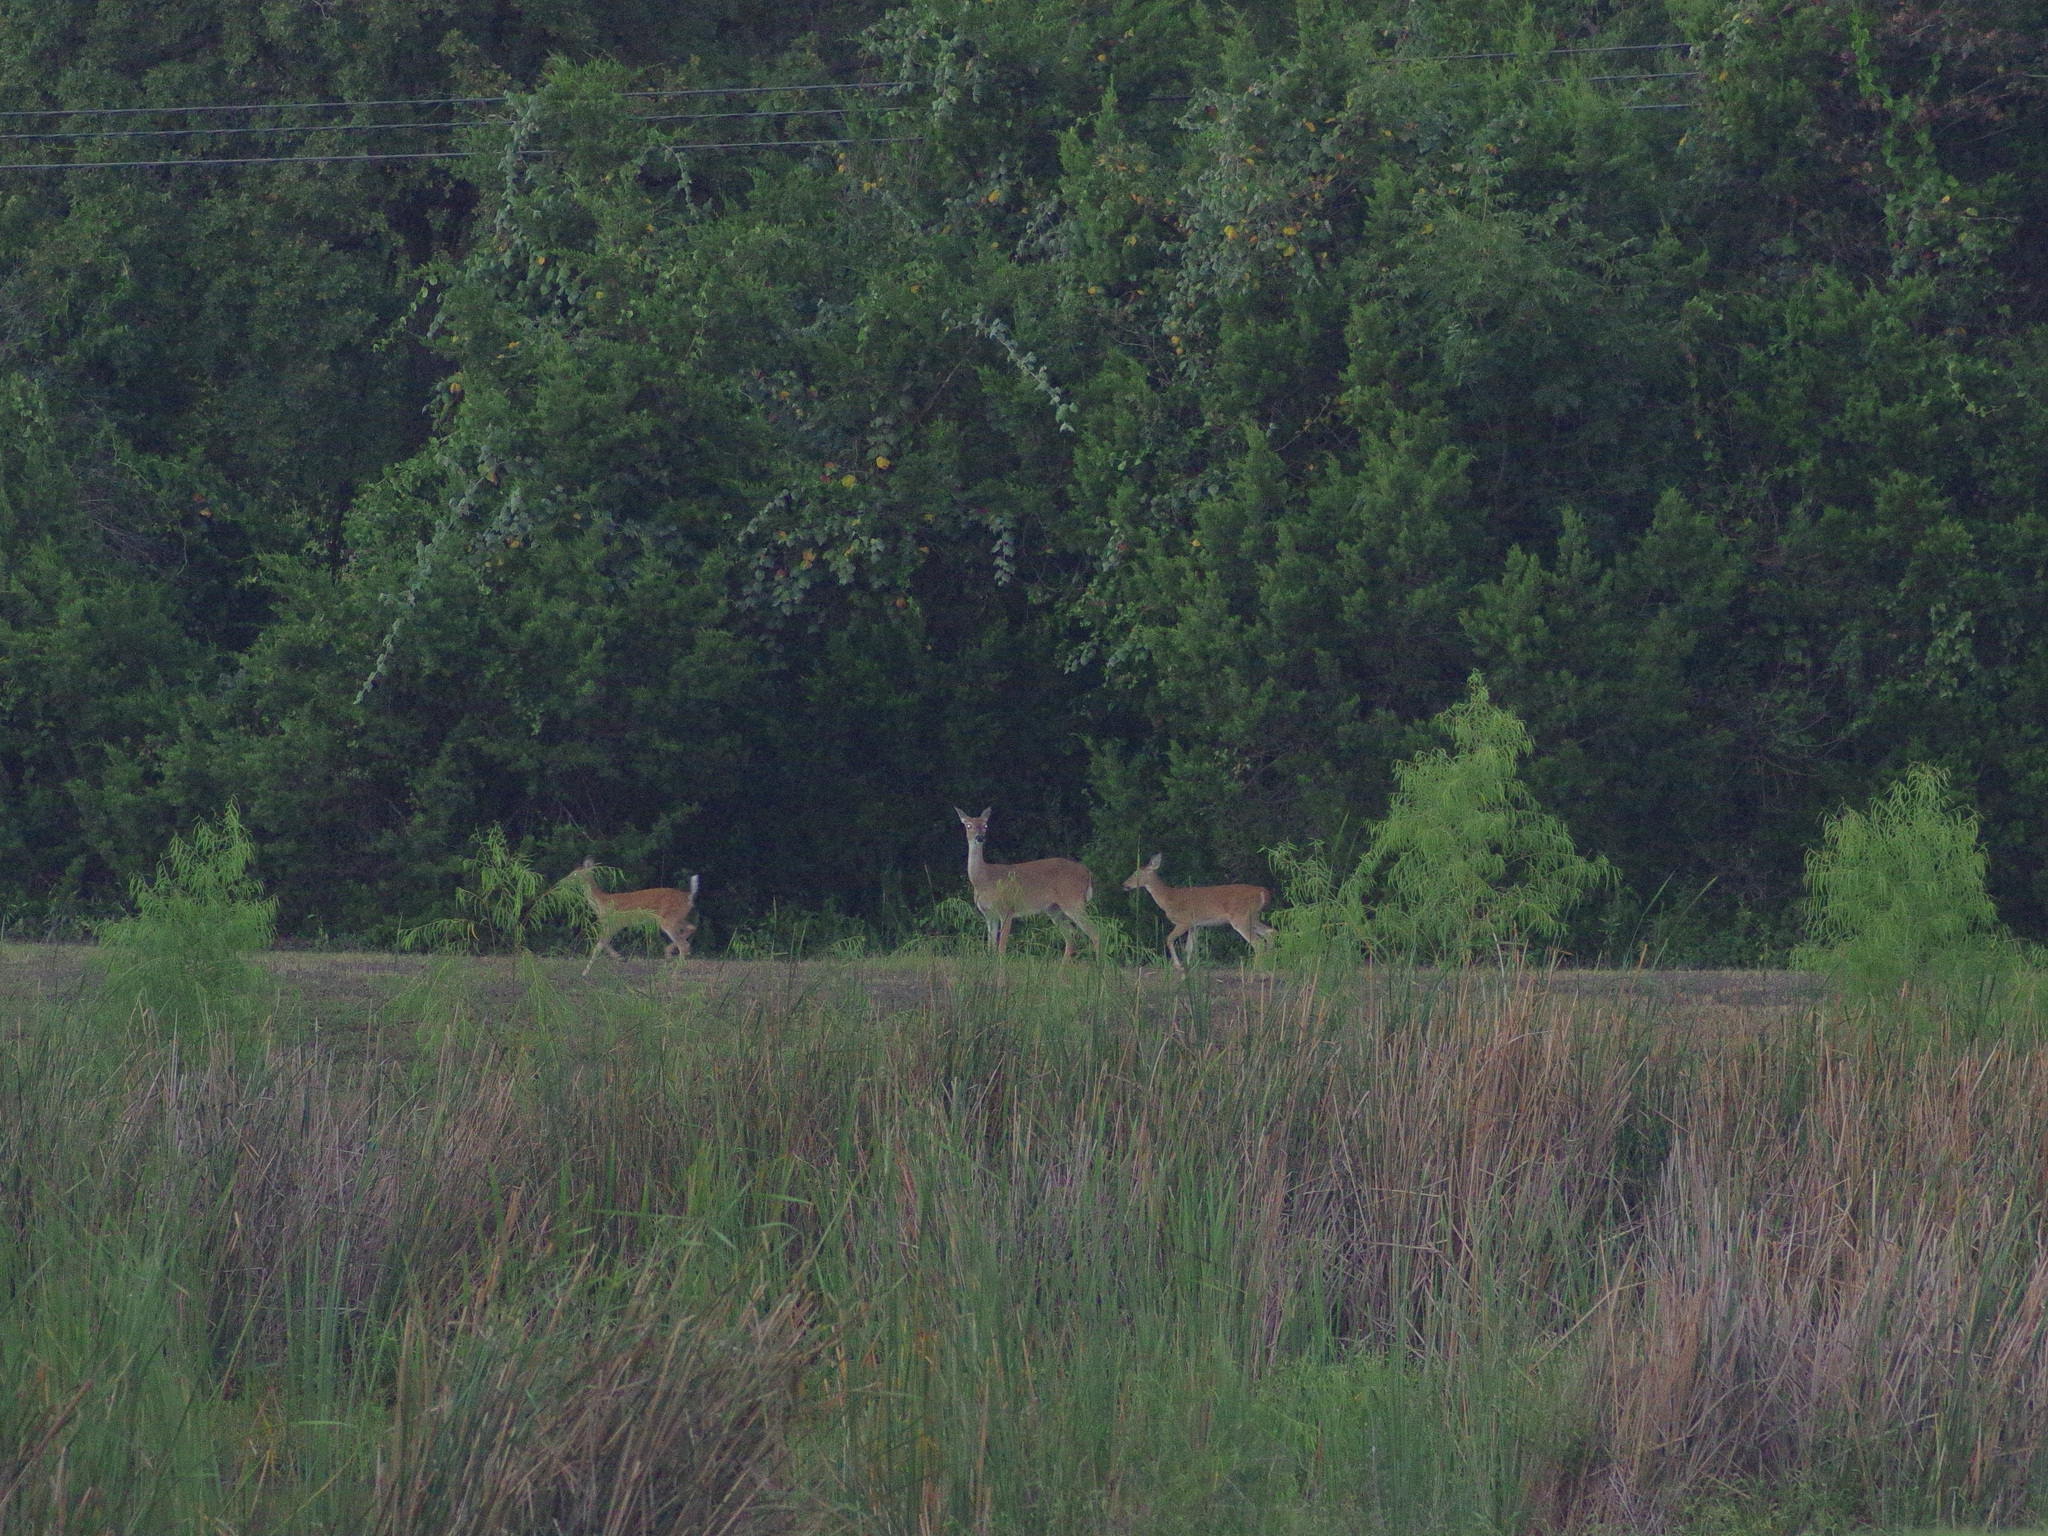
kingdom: Animalia
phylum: Chordata
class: Mammalia
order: Artiodactyla
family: Cervidae
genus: Odocoileus
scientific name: Odocoileus virginianus
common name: White-tailed deer
